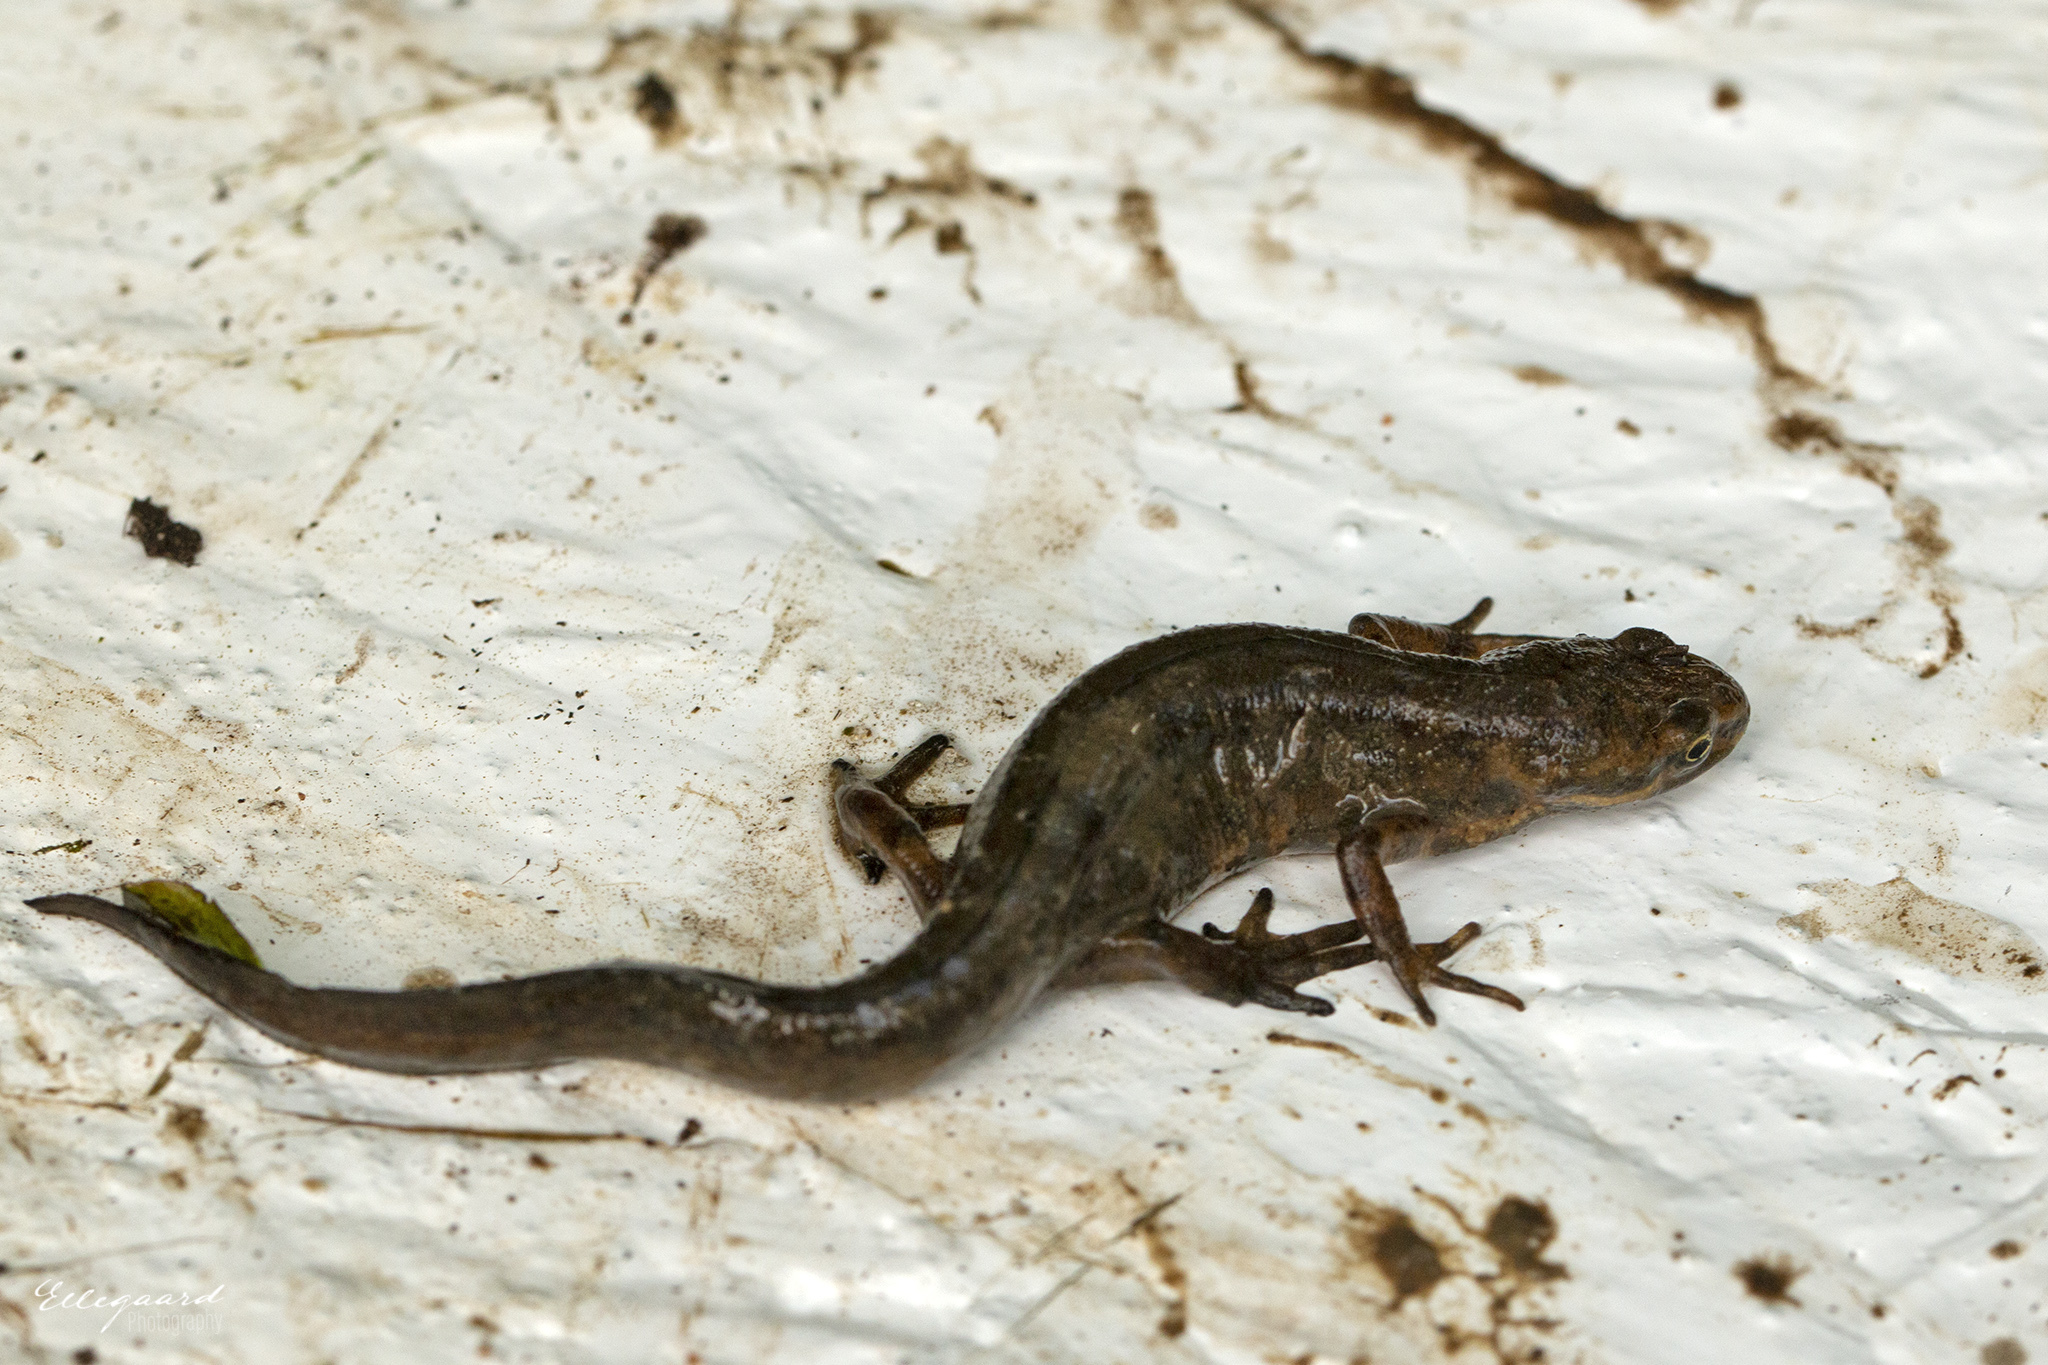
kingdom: Animalia
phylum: Chordata
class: Amphibia
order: Caudata
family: Salamandridae
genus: Lissotriton
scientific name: Lissotriton vulgaris
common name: Smooth newt
